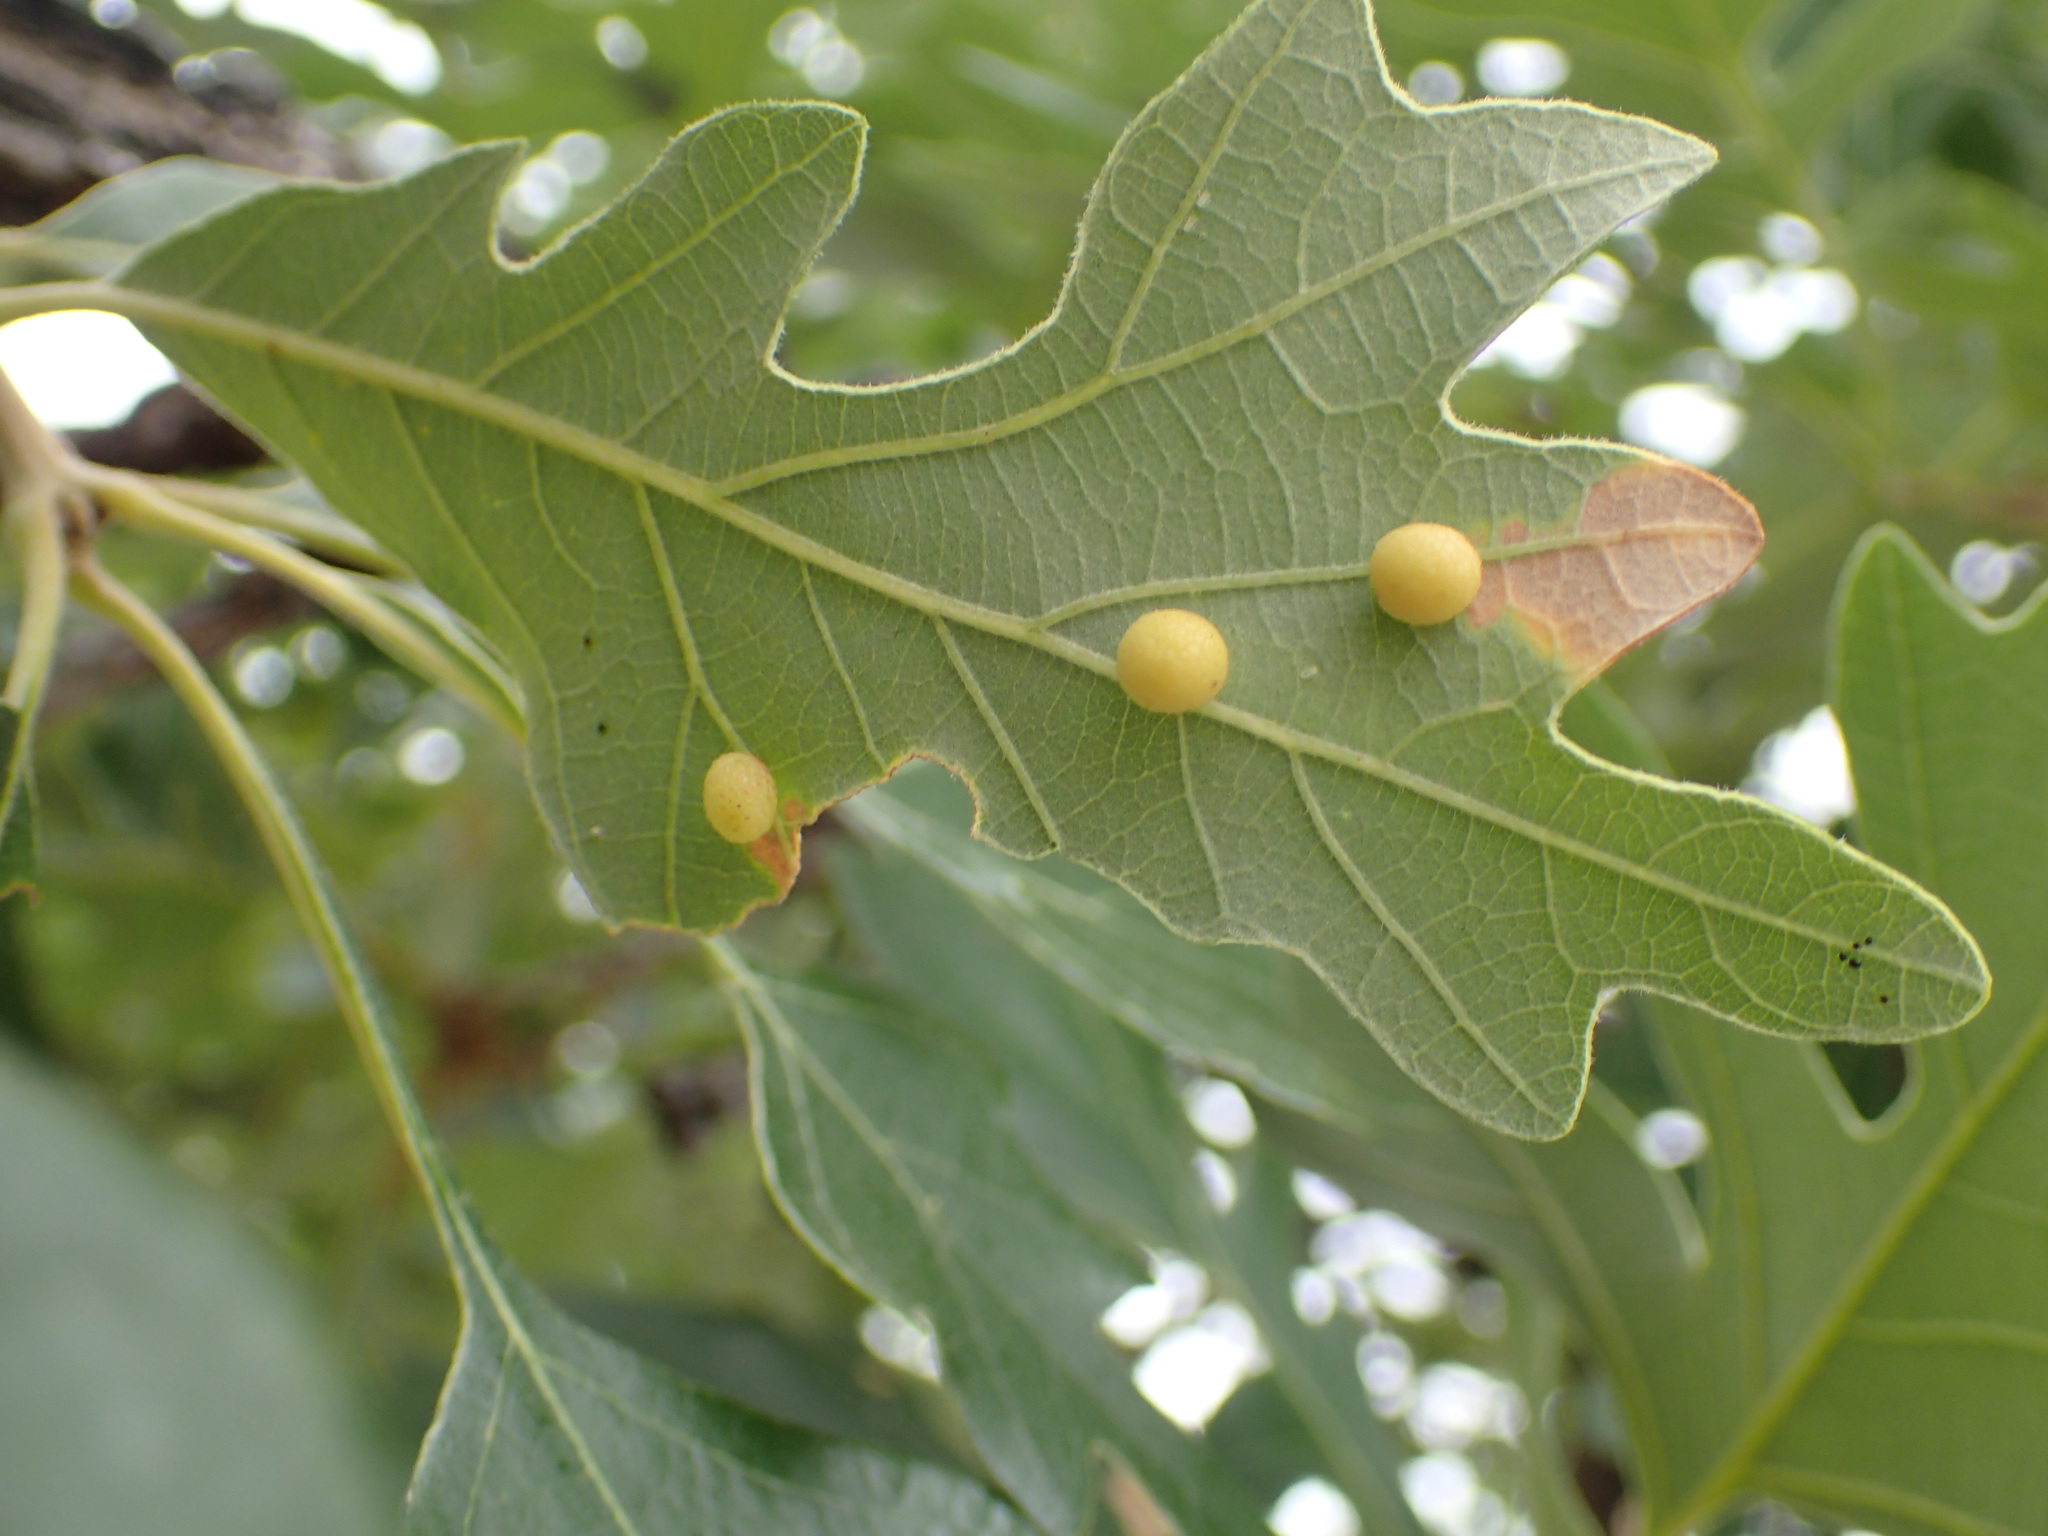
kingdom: Animalia
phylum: Arthropoda
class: Insecta
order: Hymenoptera
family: Cynipidae
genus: Acraspis
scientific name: Acraspis quercushirta
